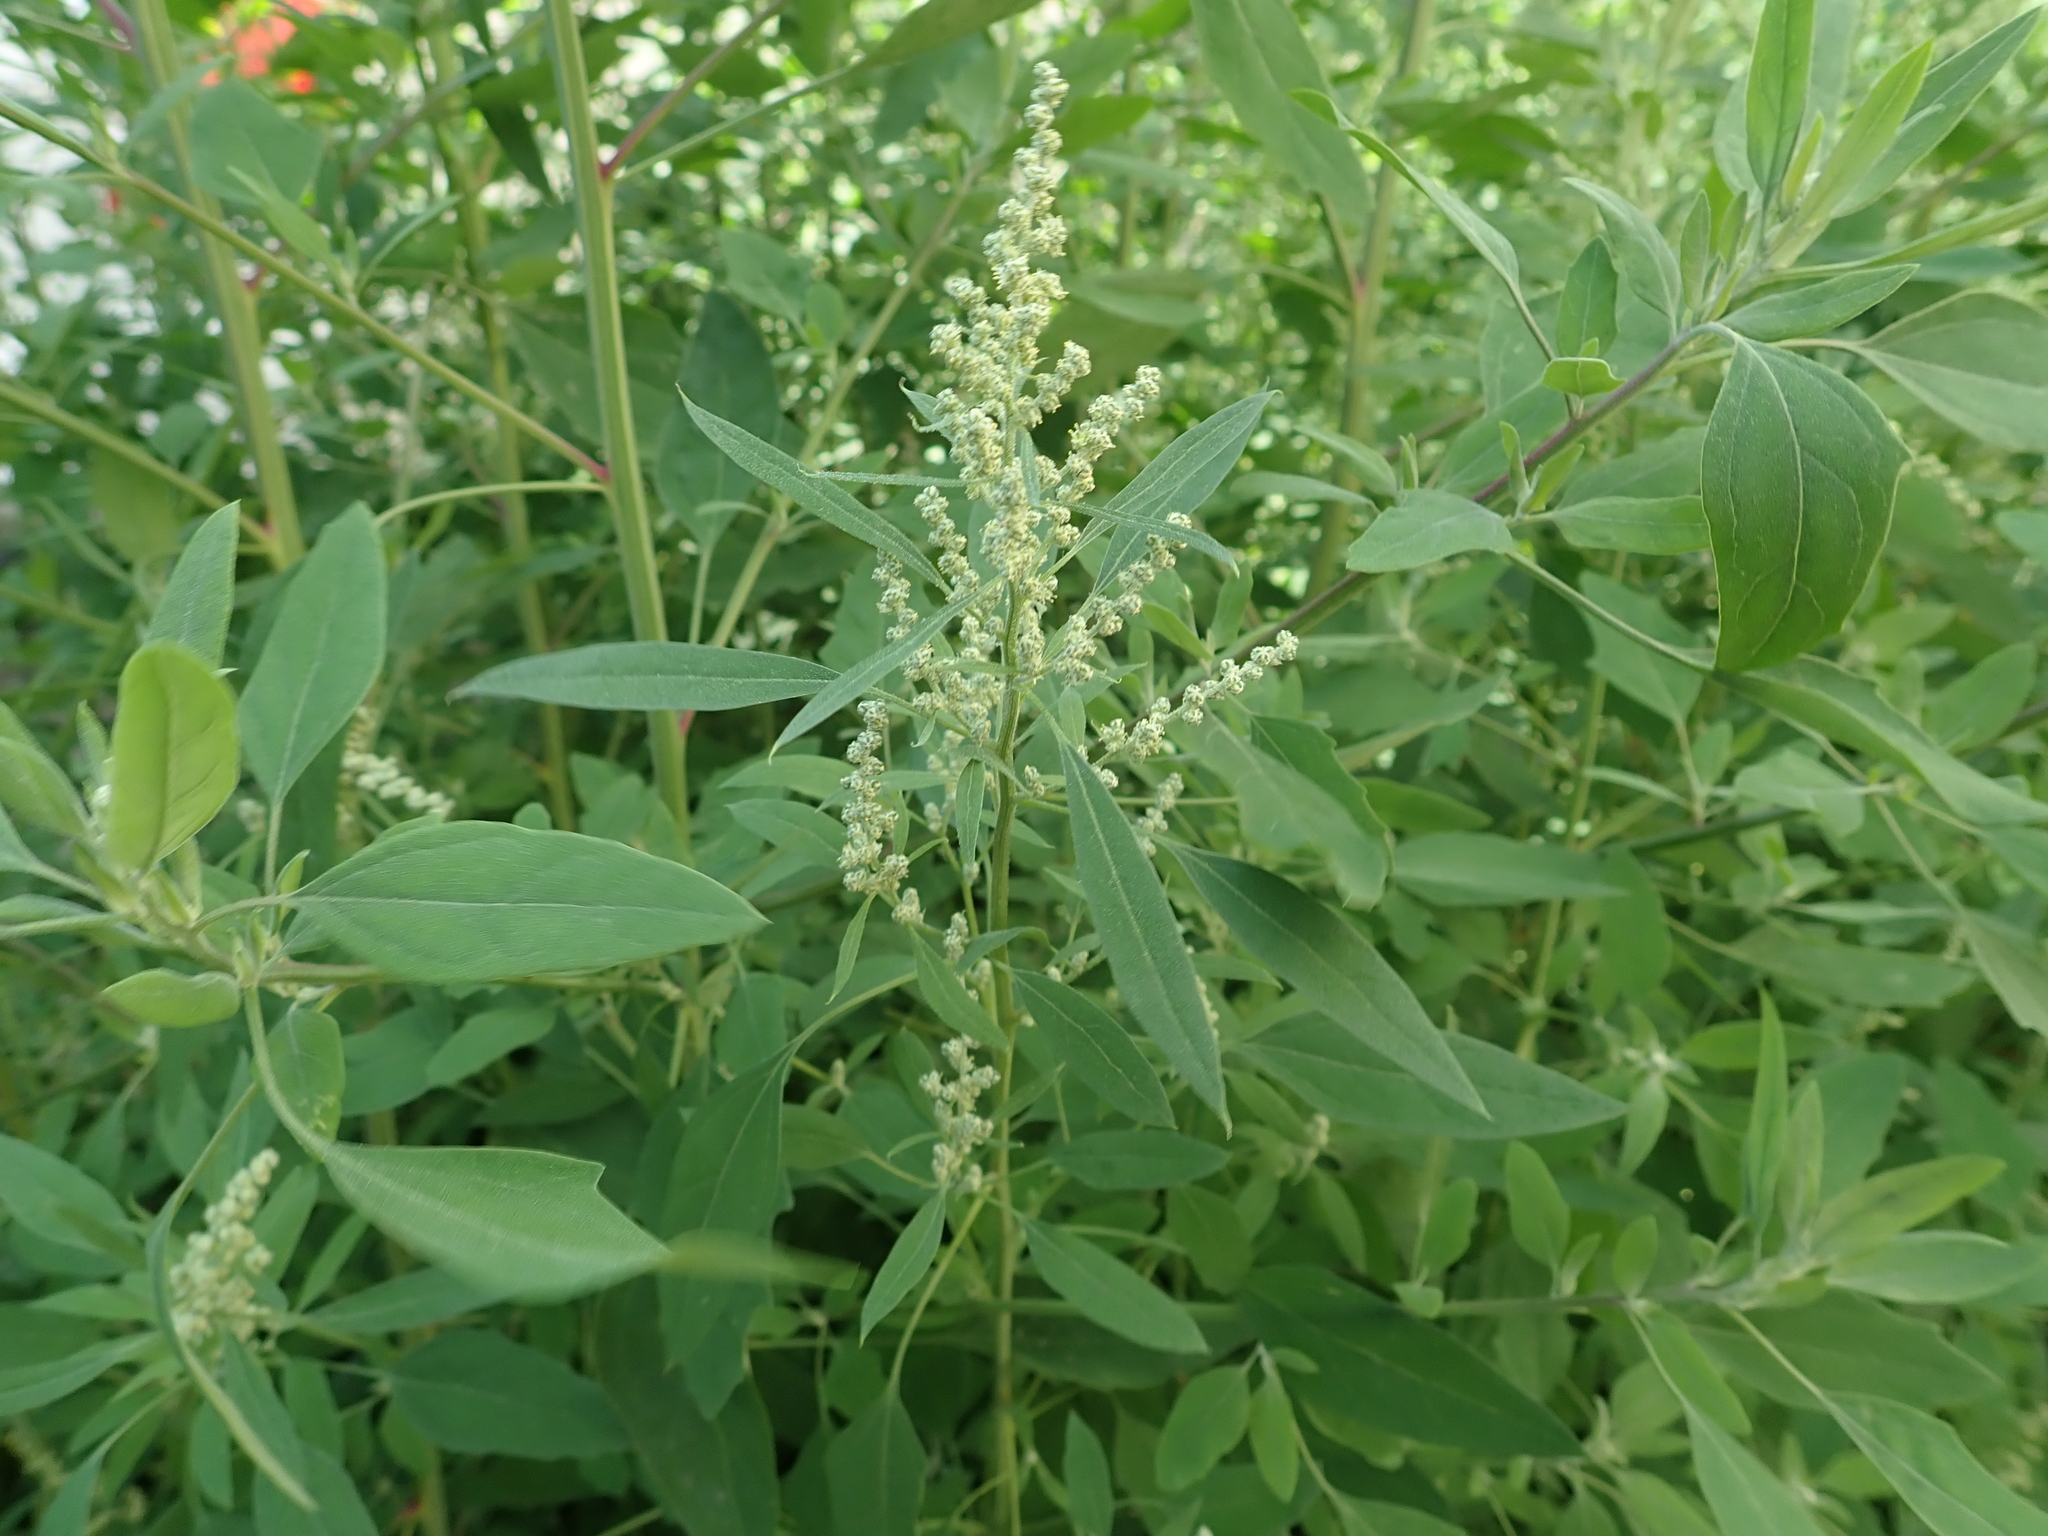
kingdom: Plantae
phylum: Tracheophyta
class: Magnoliopsida
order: Caryophyllales
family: Amaranthaceae
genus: Chenopodium
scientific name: Chenopodium album
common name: Fat-hen
